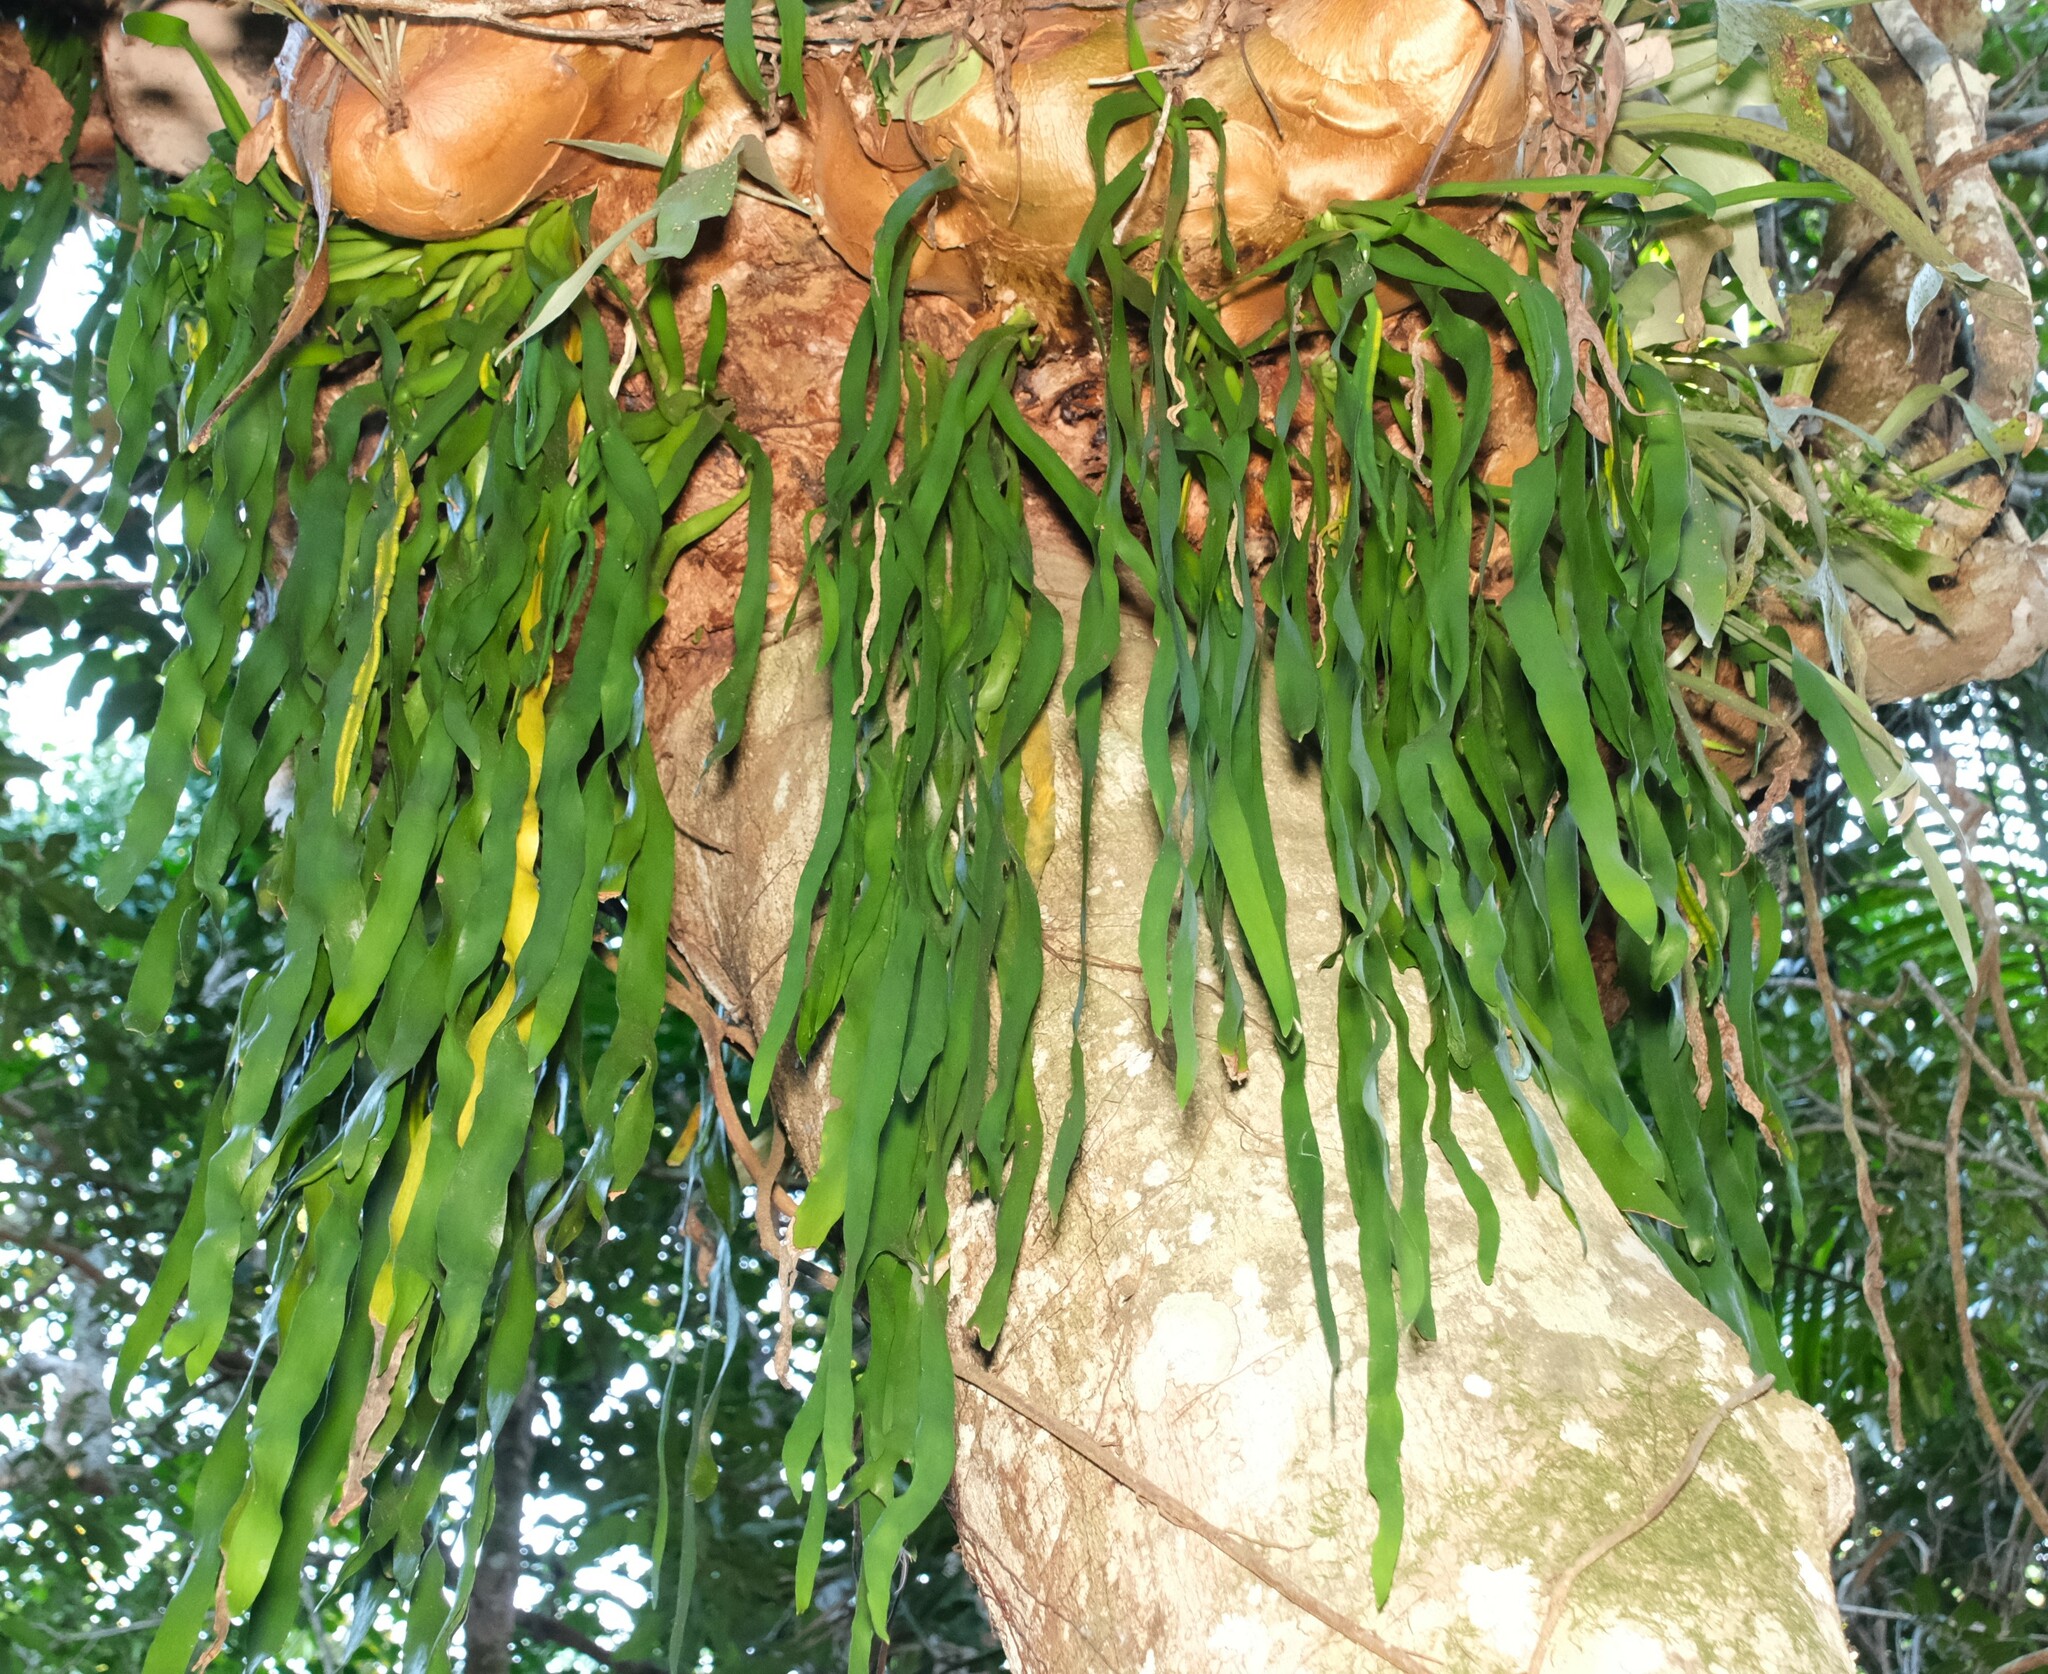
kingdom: Plantae
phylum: Tracheophyta
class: Polypodiopsida
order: Ophioglossales
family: Ophioglossaceae
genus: Ophioderma
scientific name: Ophioderma pendulum
